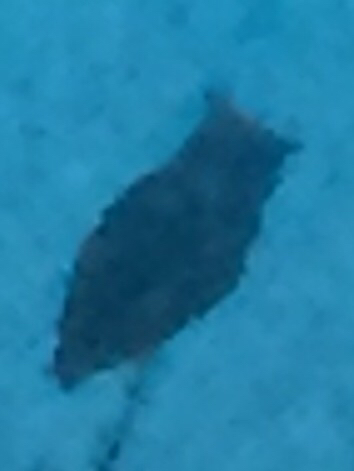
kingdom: Animalia
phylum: Chordata
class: Aves
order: Strigiformes
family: Strigidae
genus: Bubo
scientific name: Bubo virginianus
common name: Great horned owl
